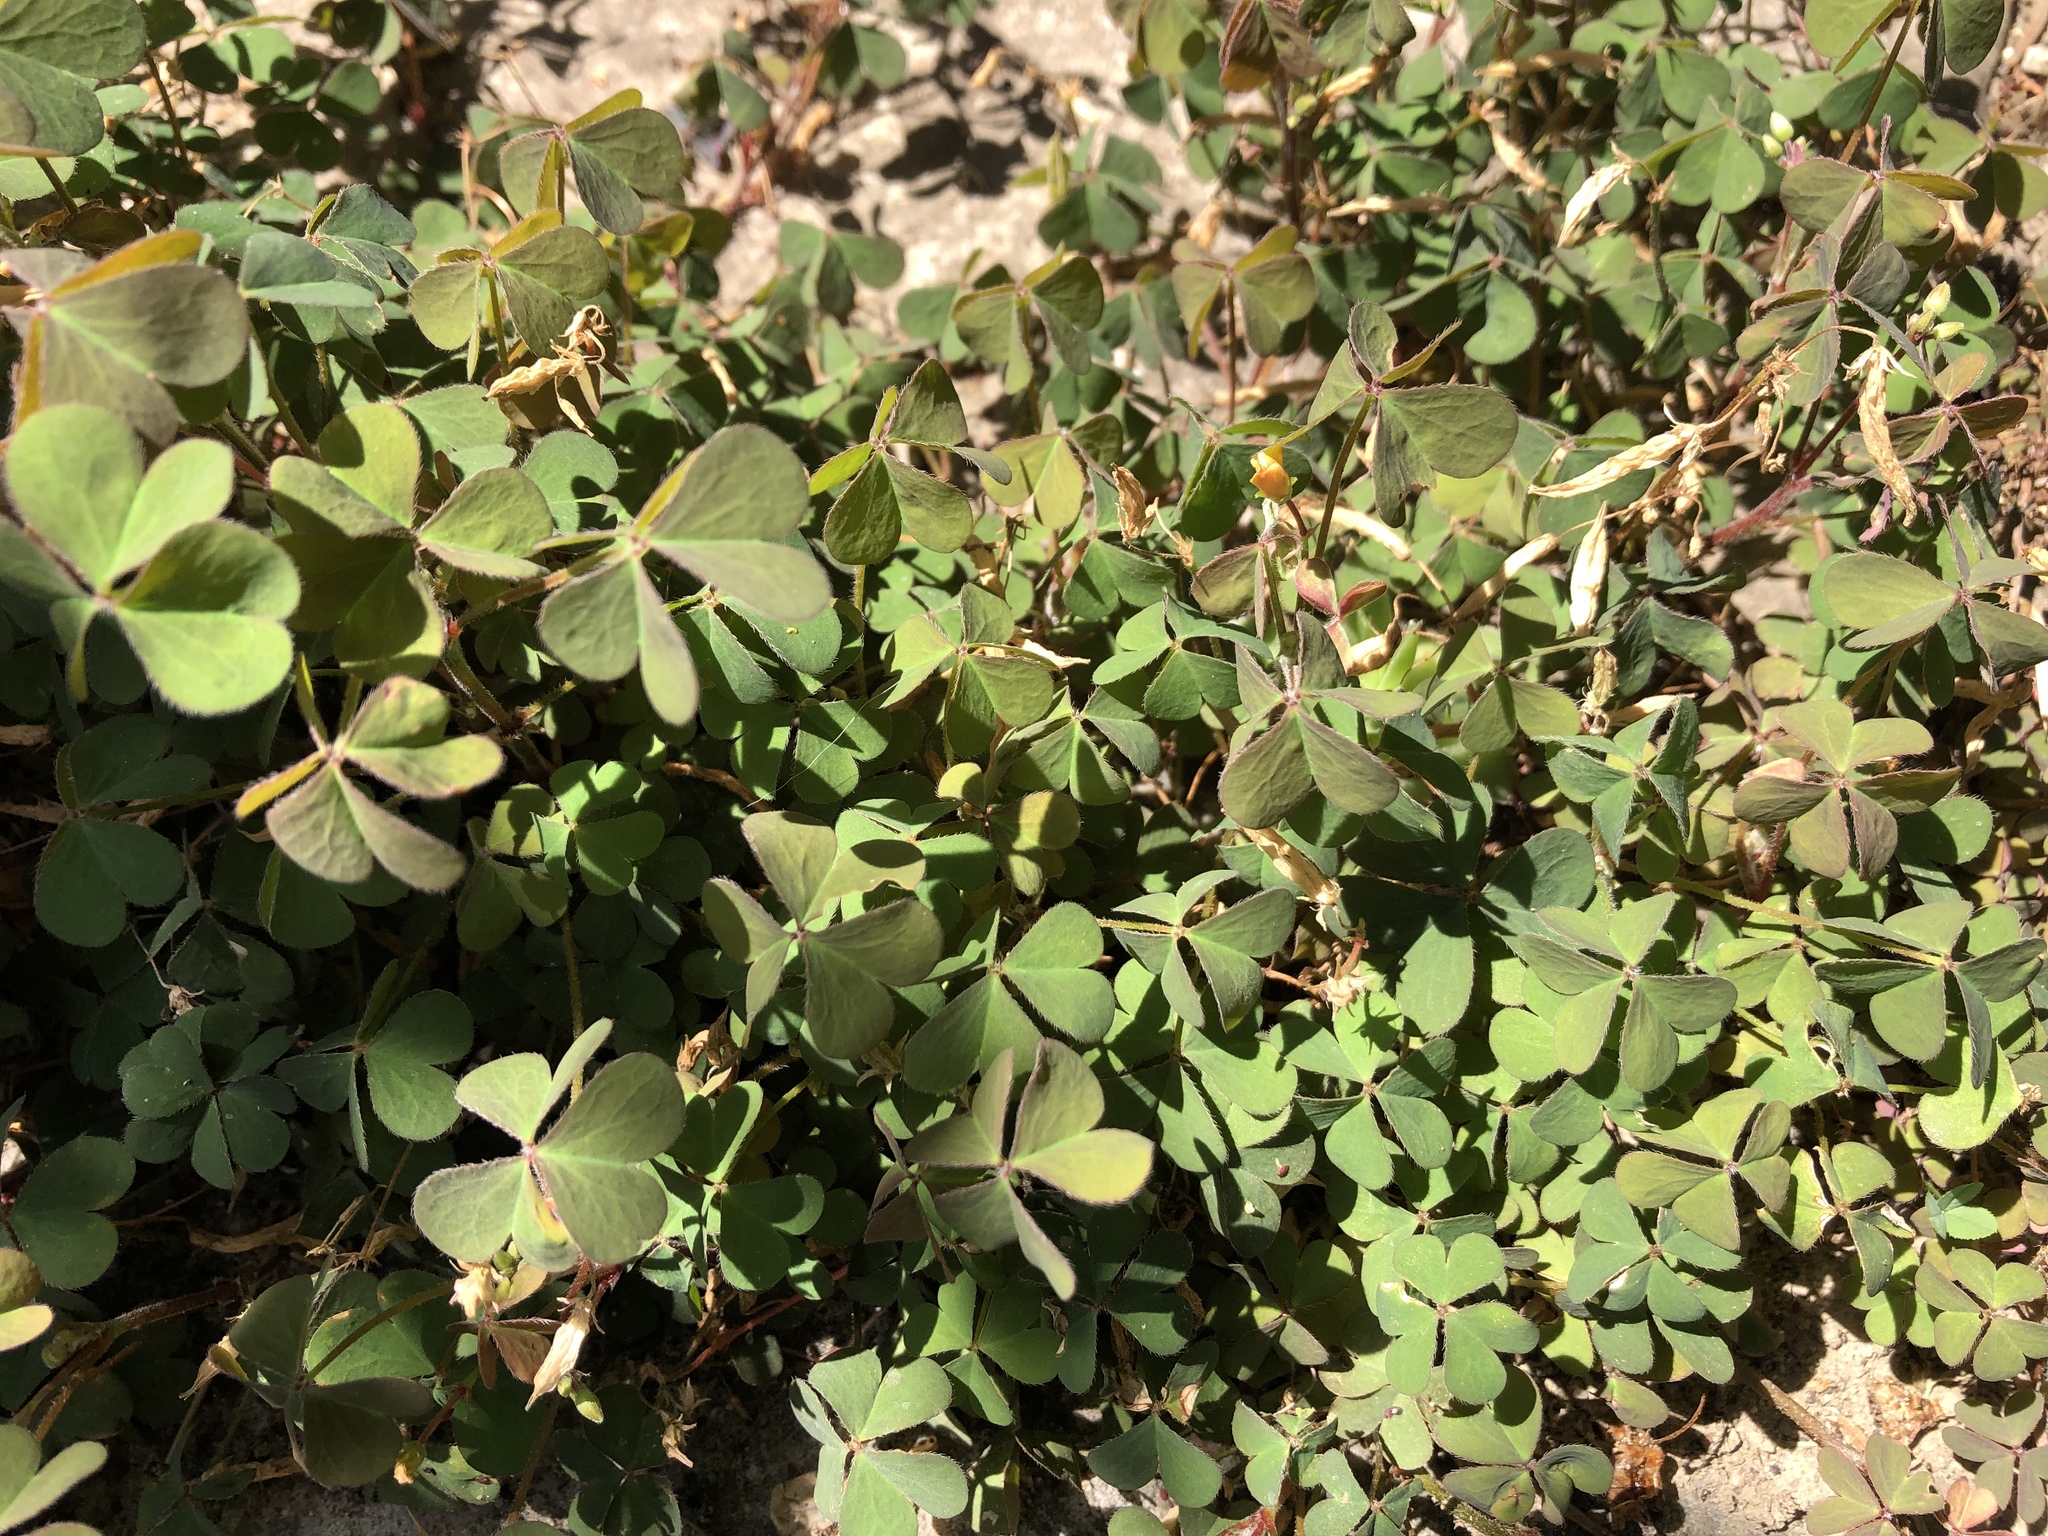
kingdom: Plantae
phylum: Tracheophyta
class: Magnoliopsida
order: Oxalidales
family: Oxalidaceae
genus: Oxalis
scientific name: Oxalis corniculata
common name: Procumbent yellow-sorrel
